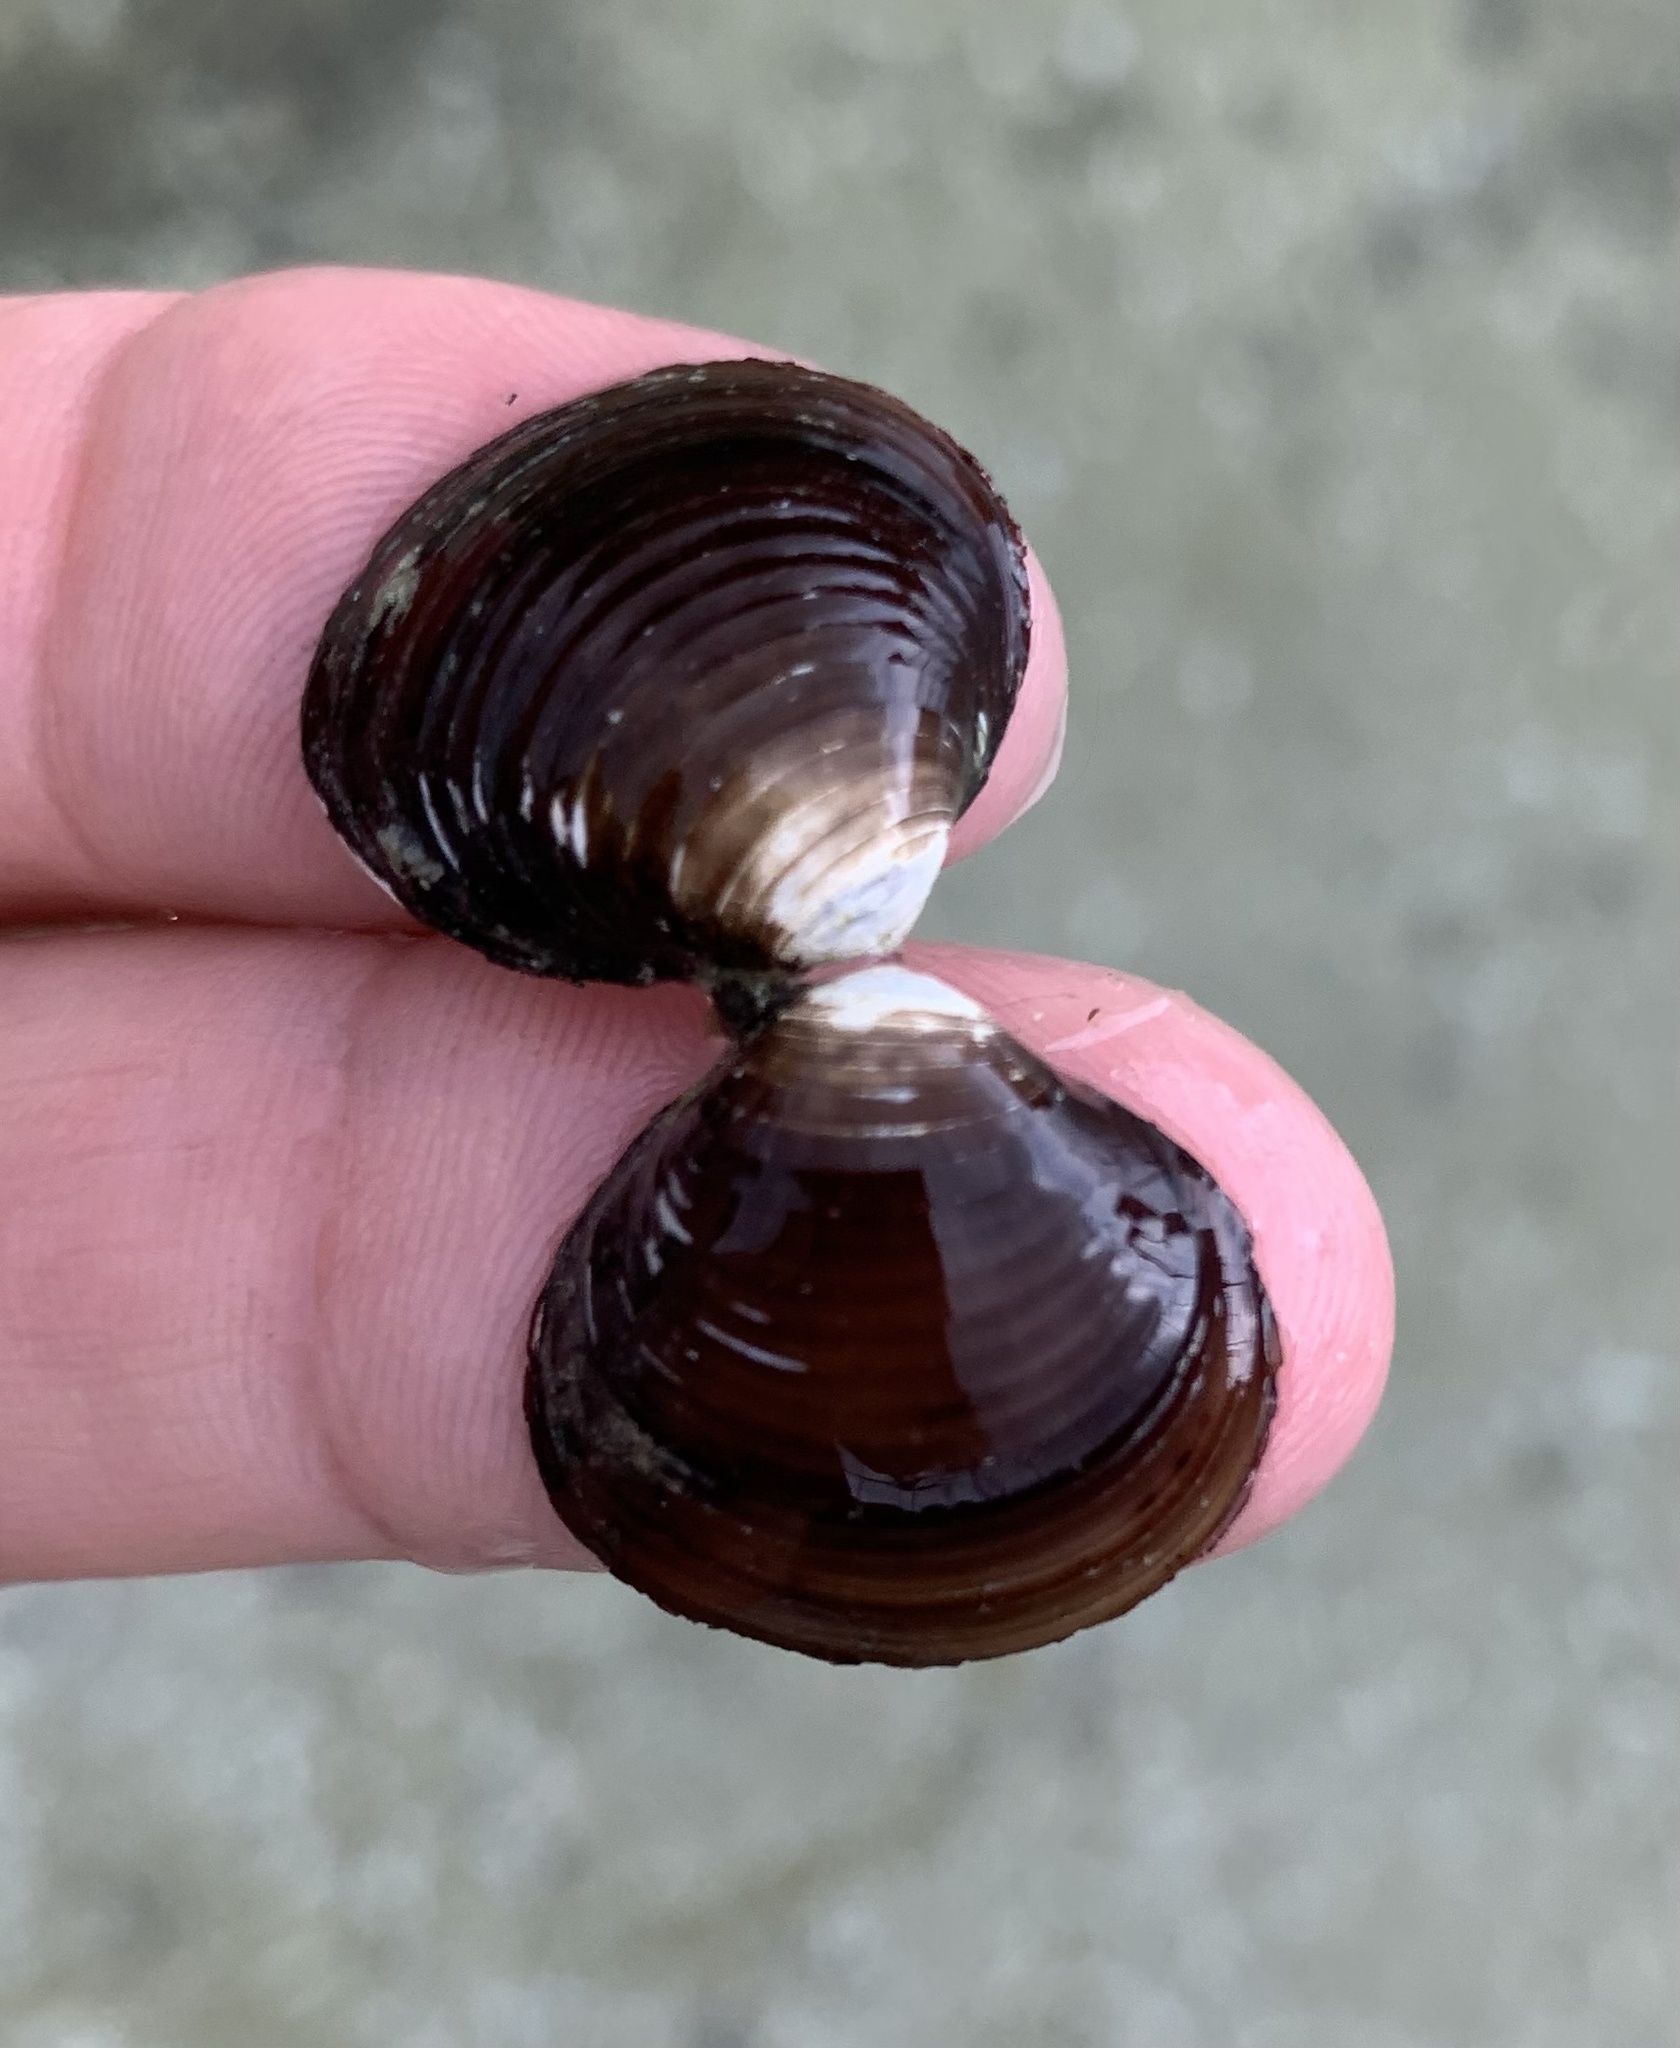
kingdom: Animalia
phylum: Mollusca
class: Bivalvia
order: Venerida
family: Cyrenidae
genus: Corbicula
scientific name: Corbicula fluminea
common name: Asian clam
